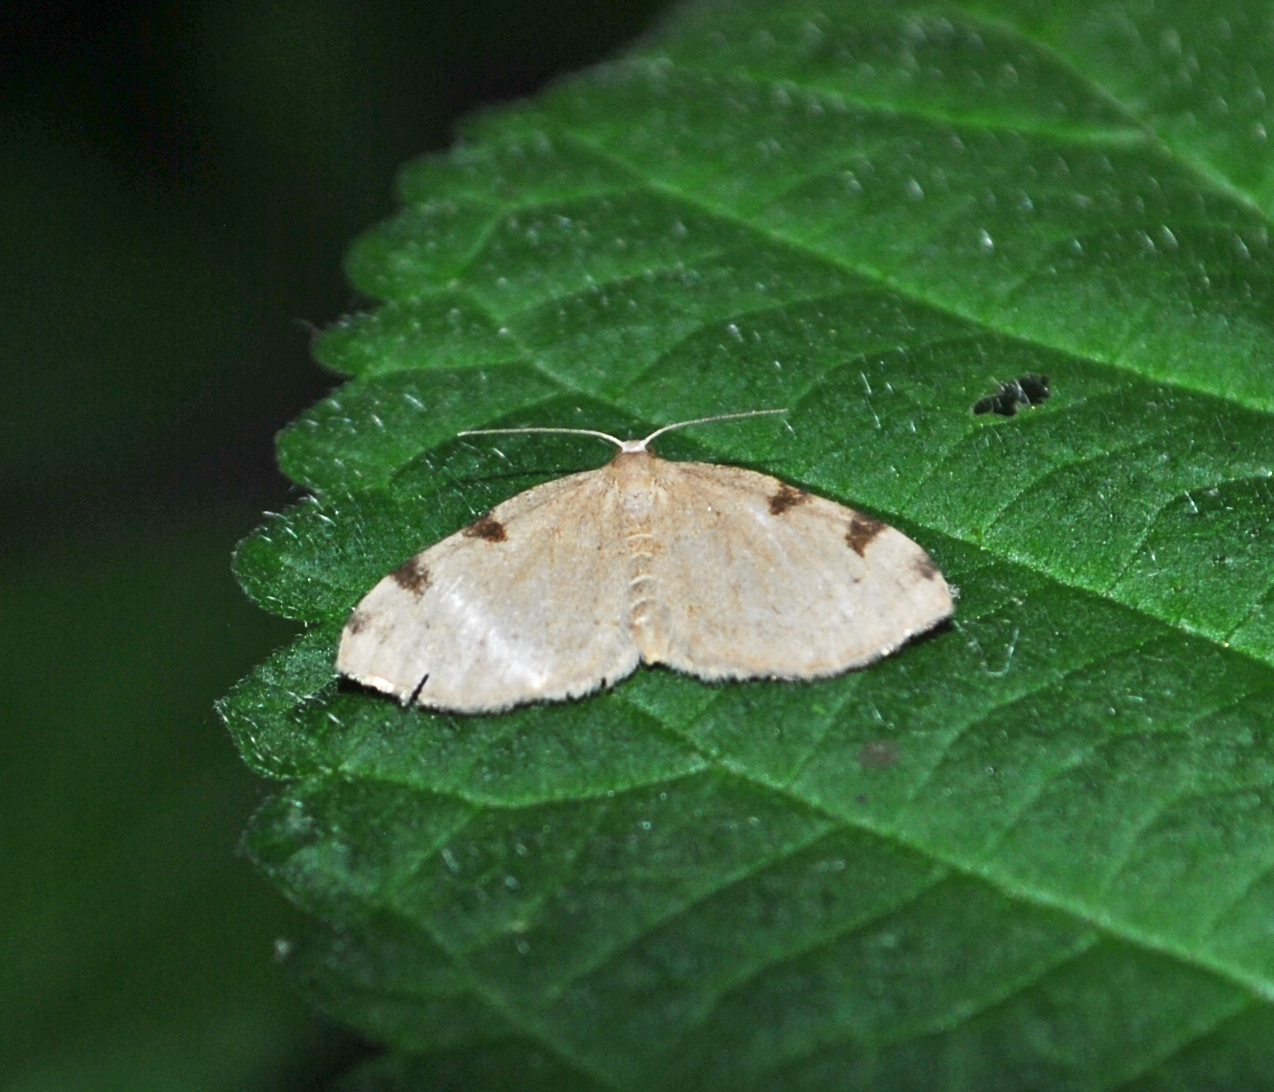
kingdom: Animalia
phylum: Arthropoda
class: Insecta
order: Lepidoptera
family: Geometridae
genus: Heterophleps
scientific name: Heterophleps triguttaria
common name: Three-spotted fillip
